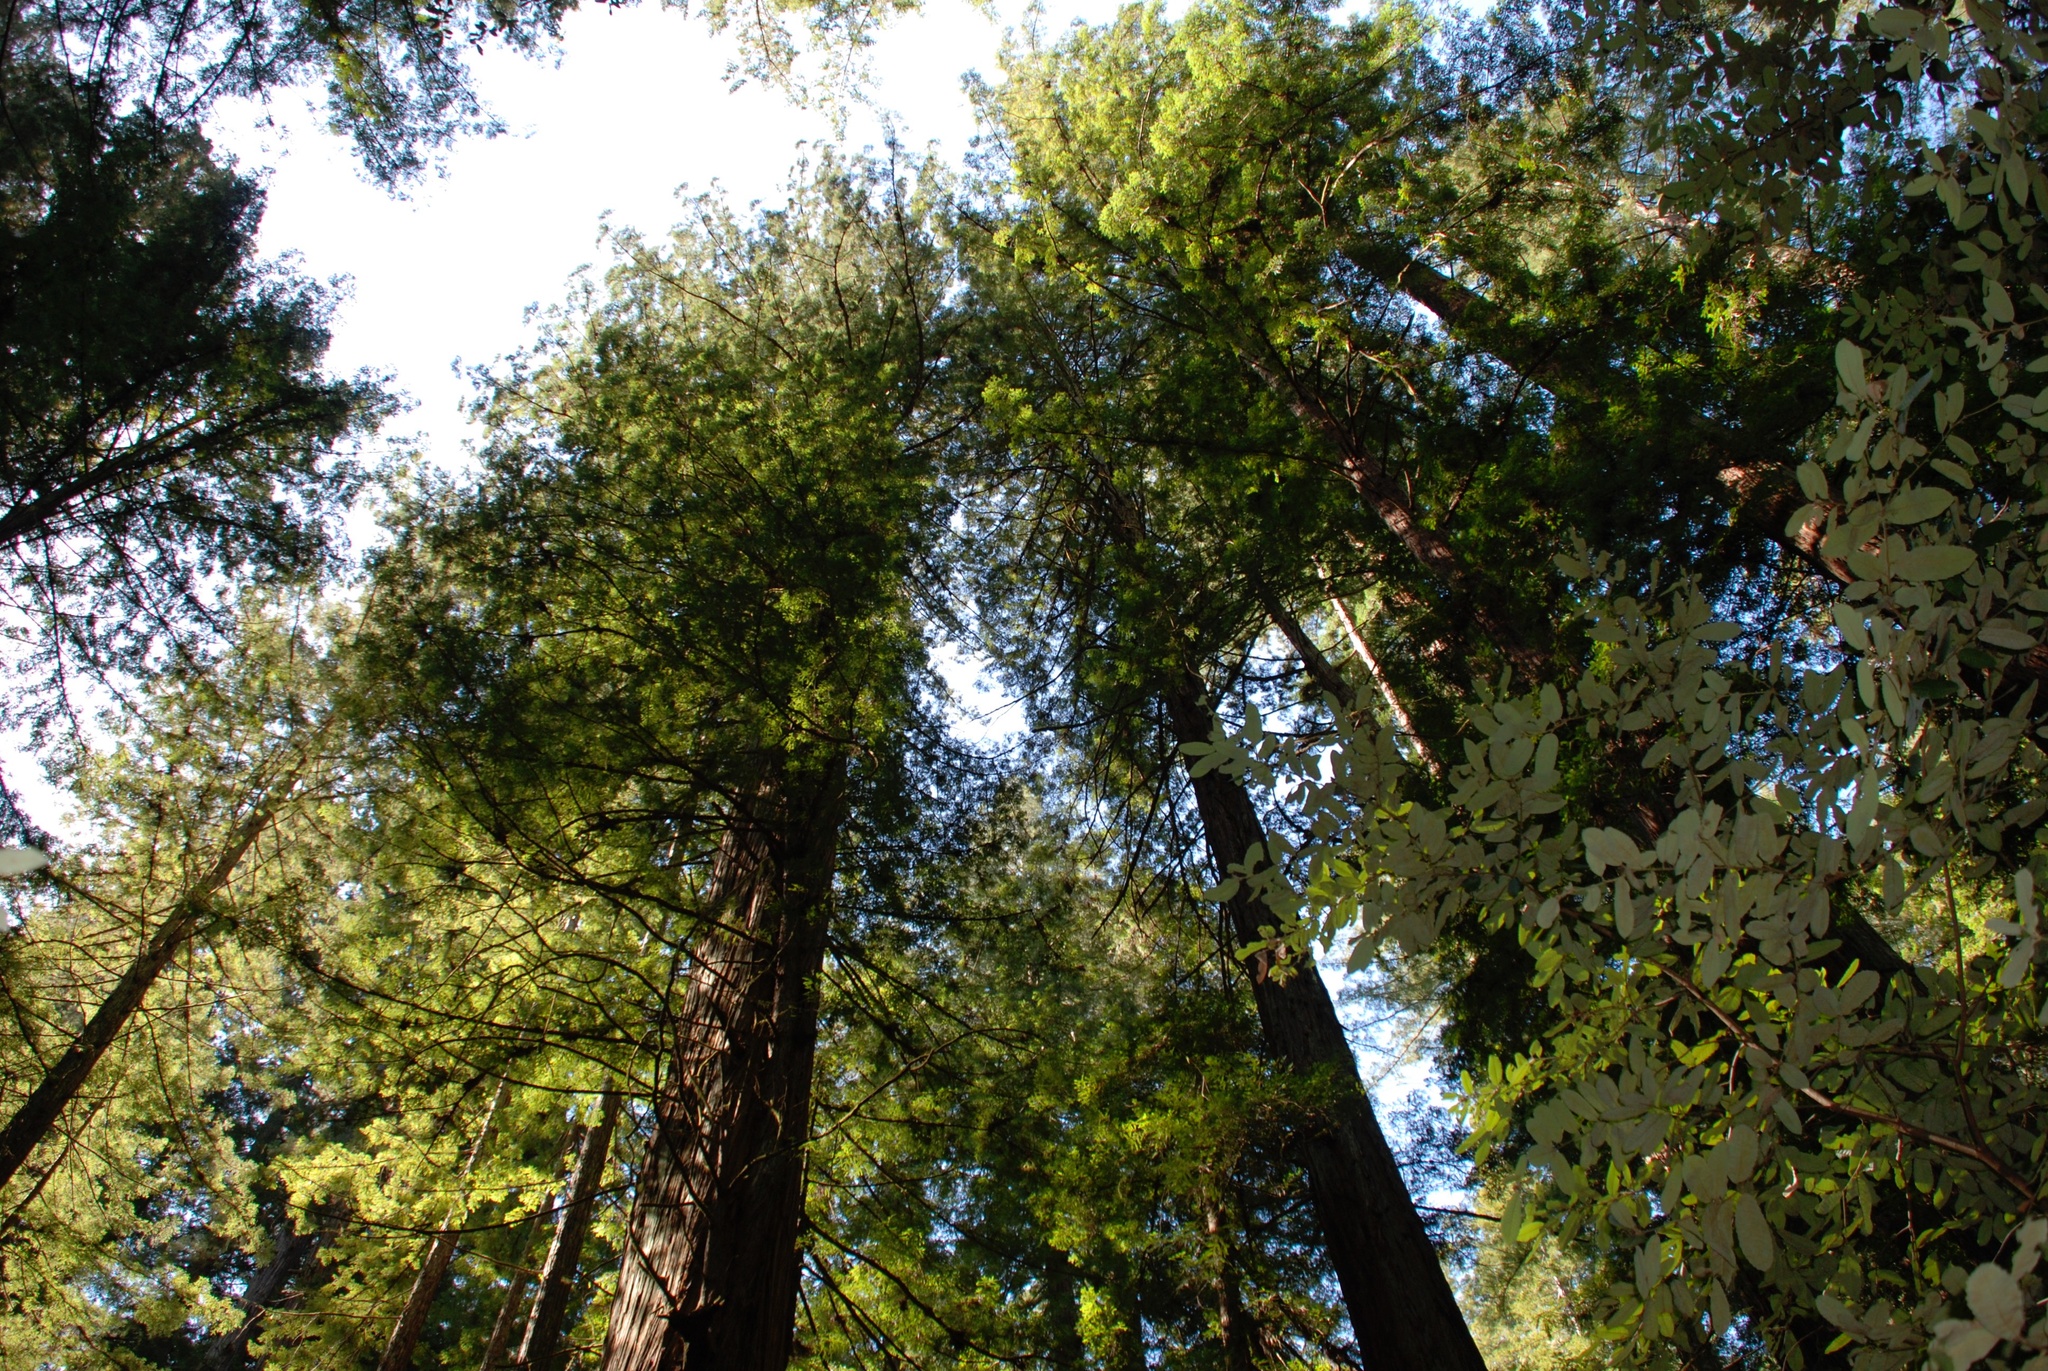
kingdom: Plantae
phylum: Tracheophyta
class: Pinopsida
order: Pinales
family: Cupressaceae
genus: Sequoia
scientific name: Sequoia sempervirens
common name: Coast redwood
